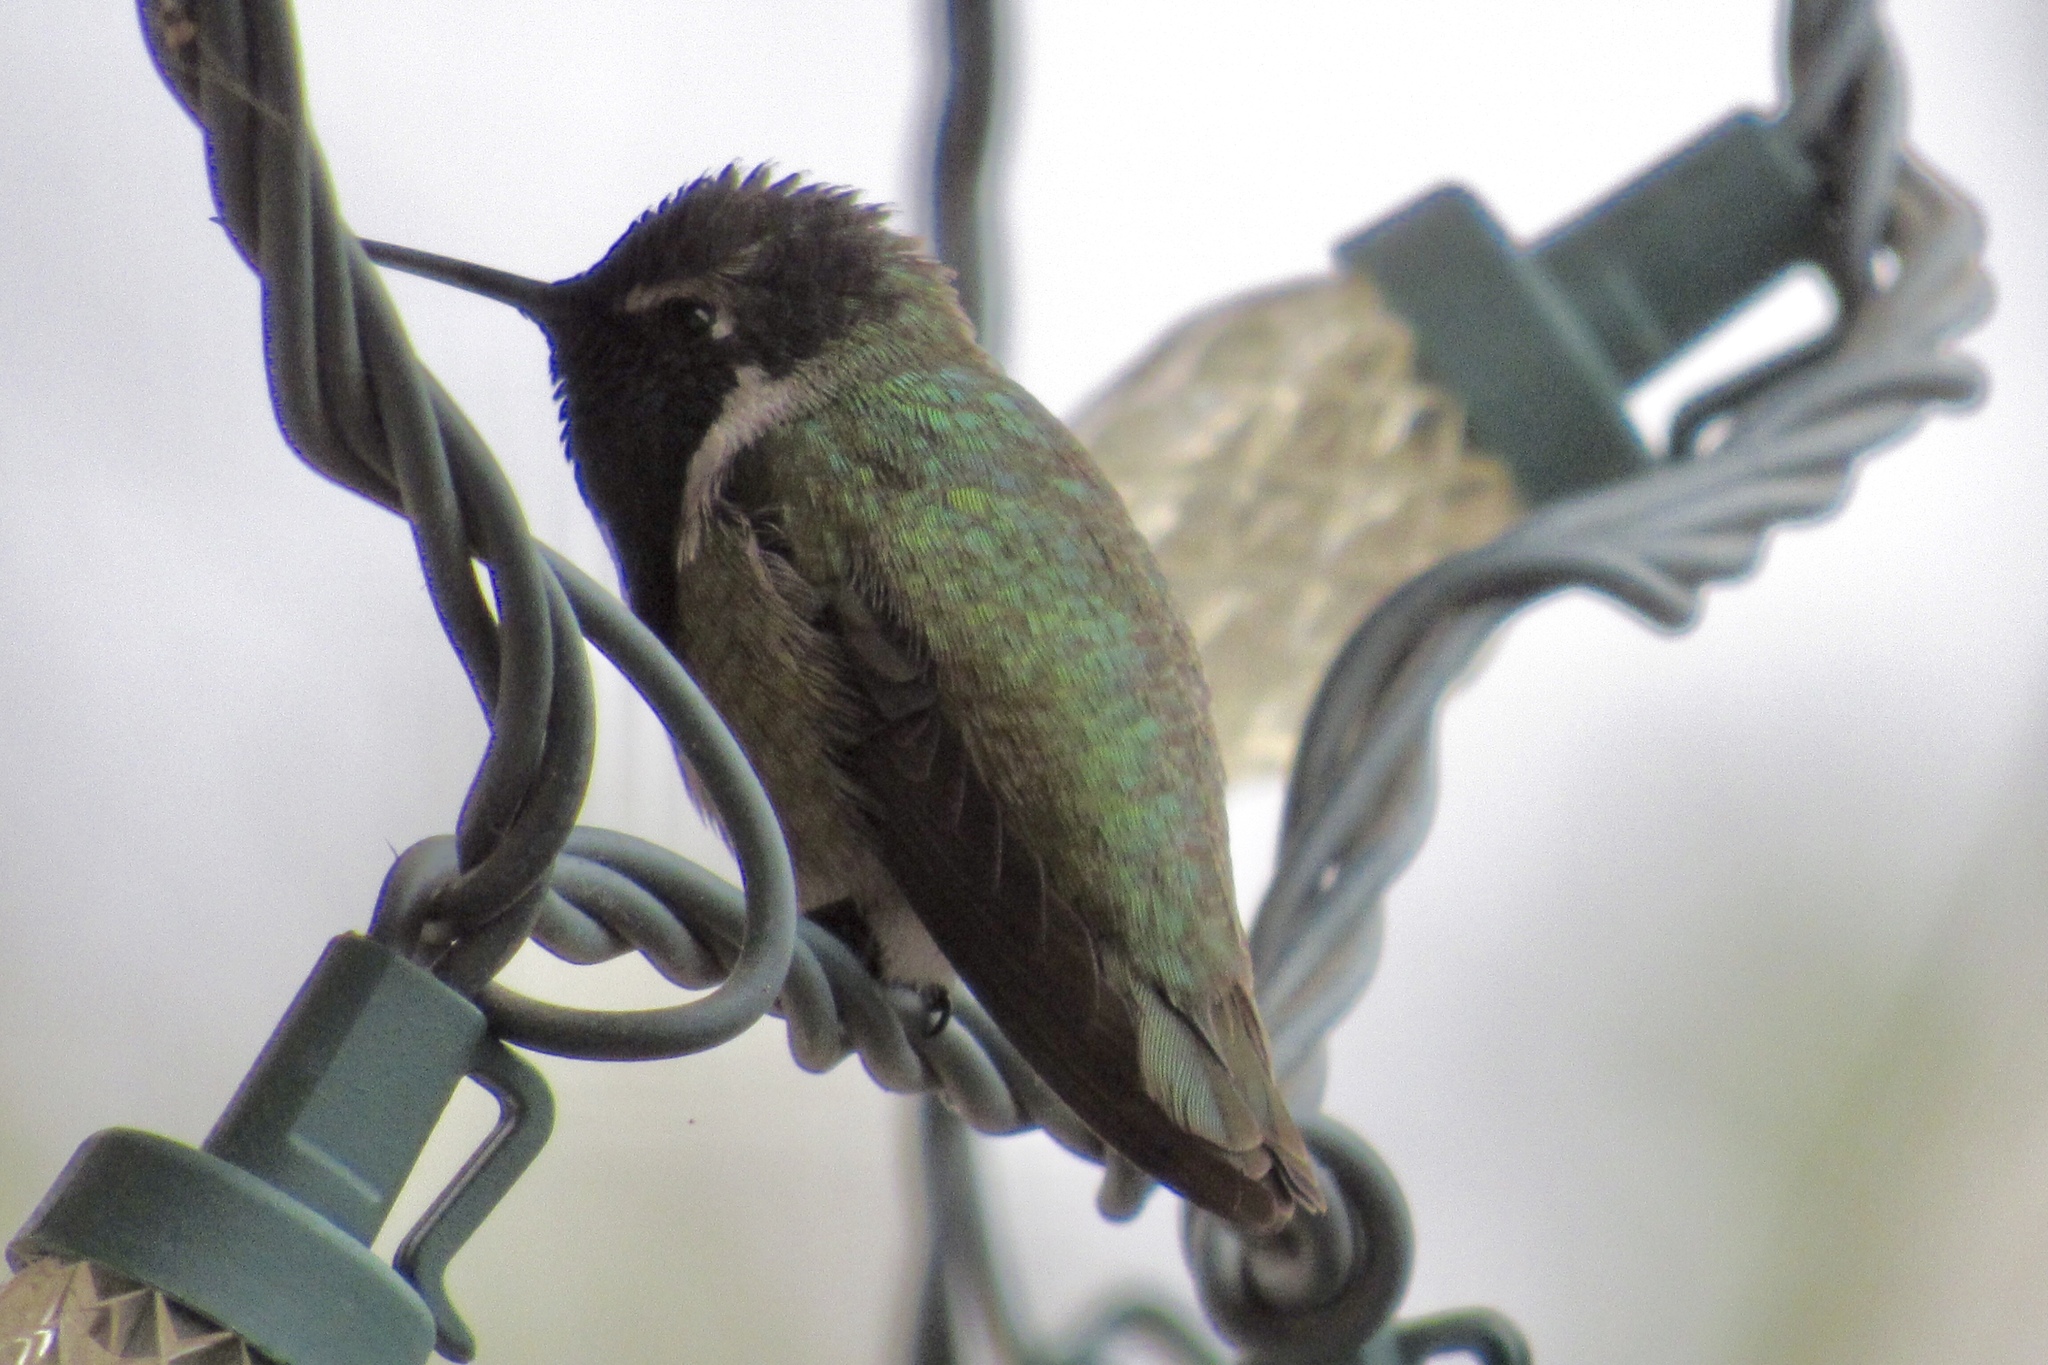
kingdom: Animalia
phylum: Chordata
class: Aves
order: Apodiformes
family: Trochilidae
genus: Calypte
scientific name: Calypte anna
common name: Anna's hummingbird
